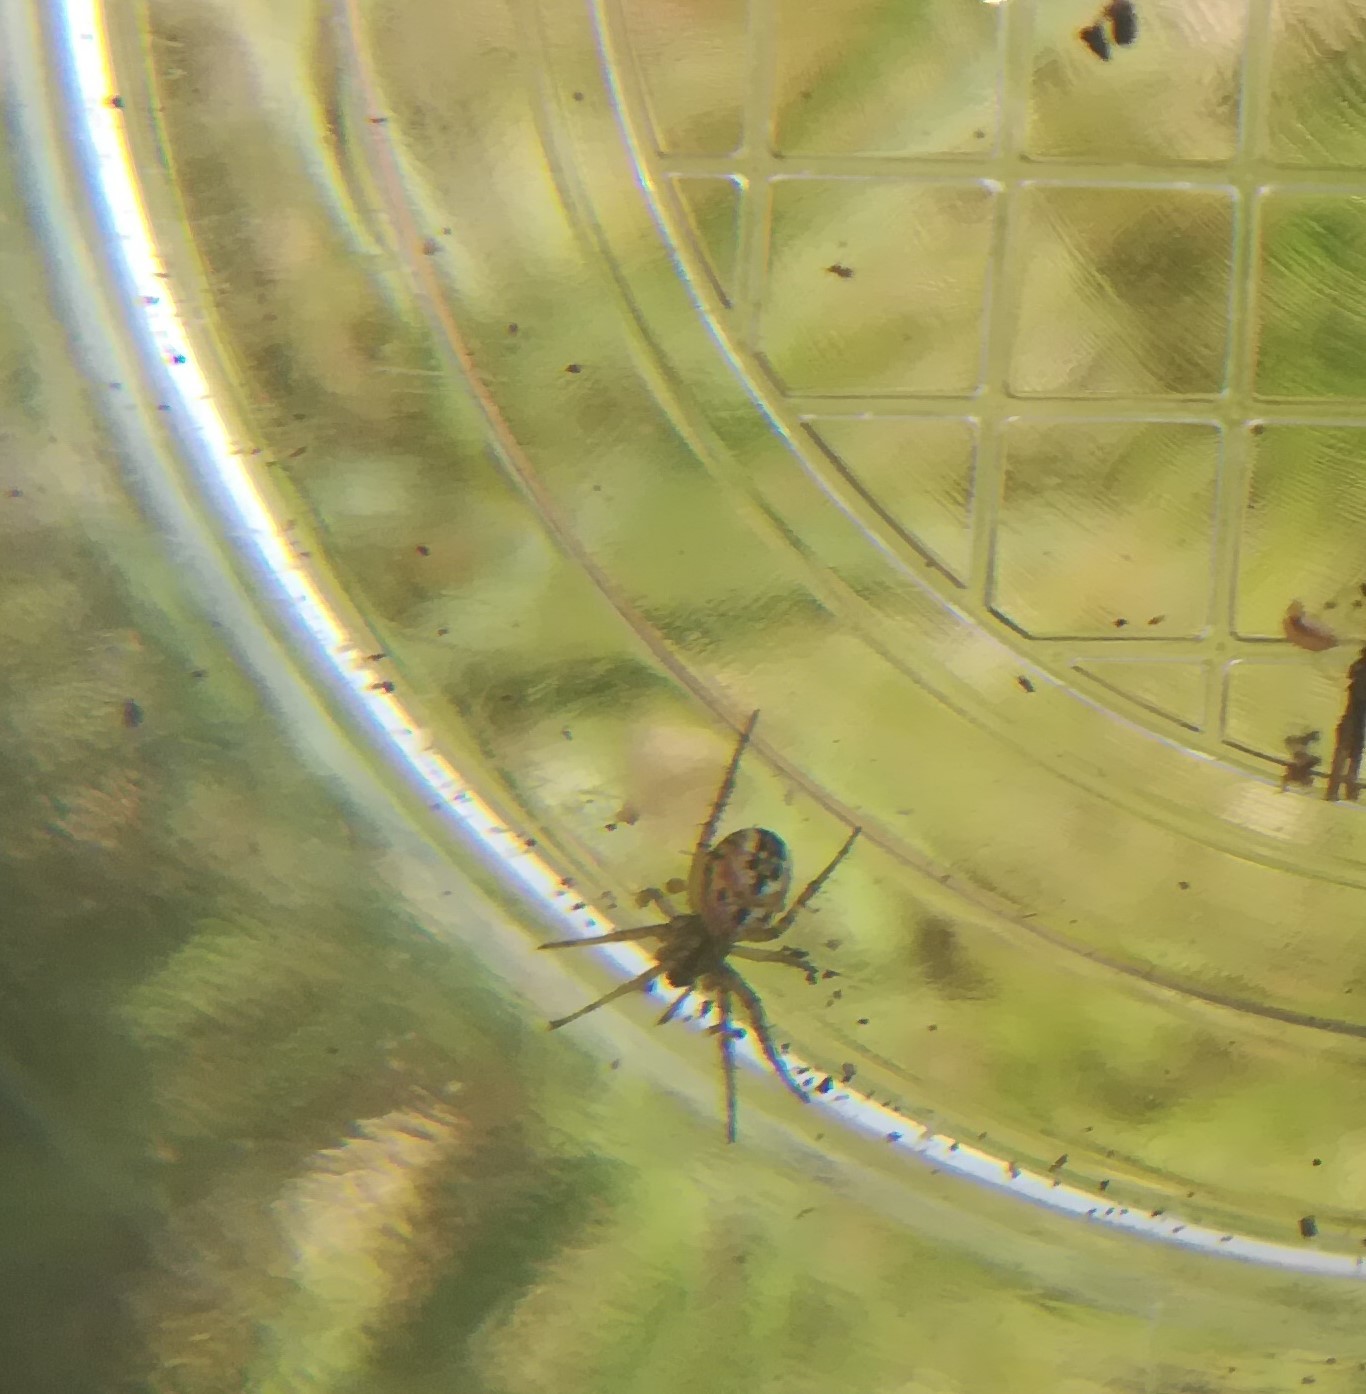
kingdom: Animalia
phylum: Arthropoda
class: Arachnida
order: Araneae
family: Araneidae
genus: Mangora
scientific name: Mangora acalypha
